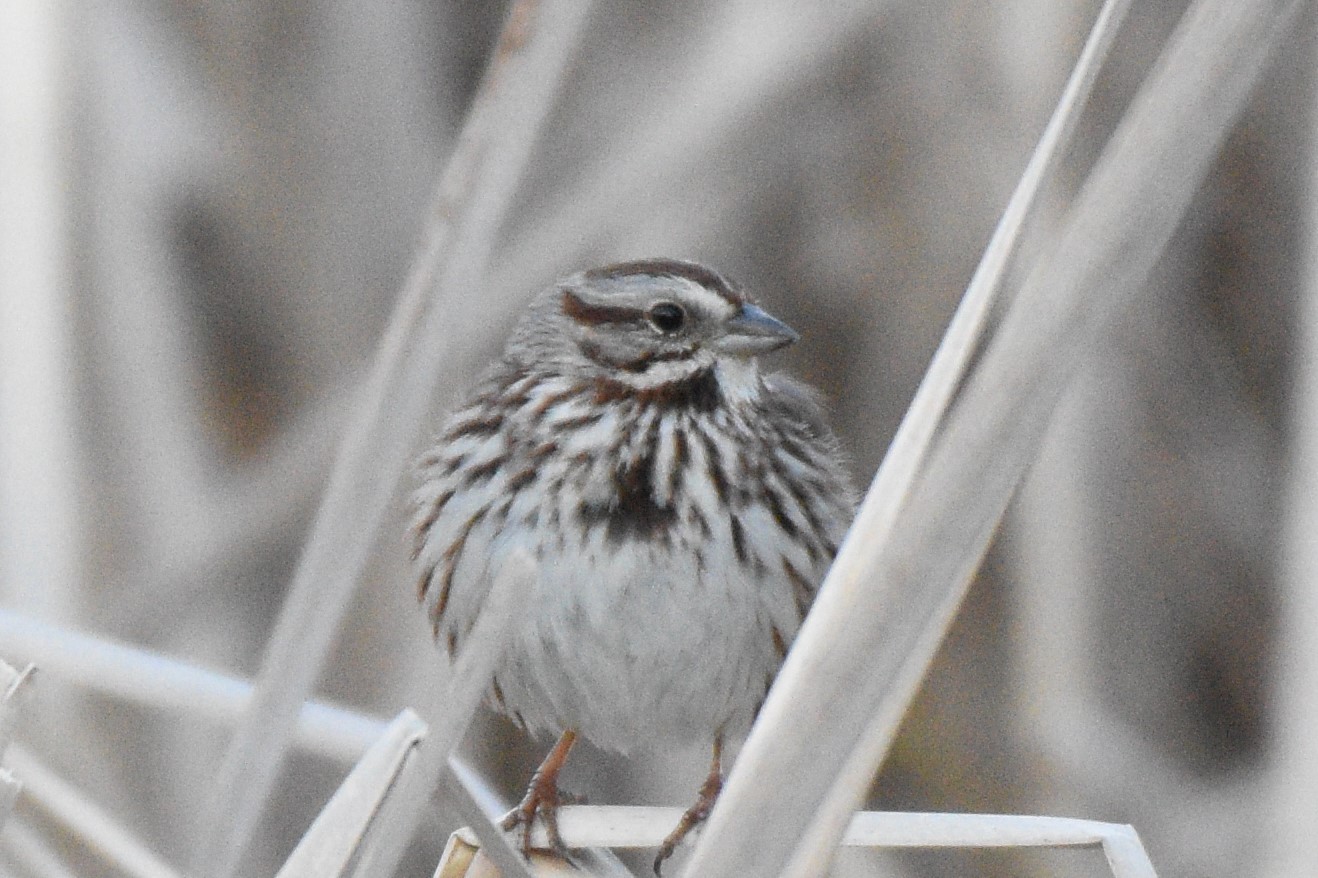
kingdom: Animalia
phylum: Chordata
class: Aves
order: Passeriformes
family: Passerellidae
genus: Melospiza
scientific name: Melospiza melodia
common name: Song sparrow
